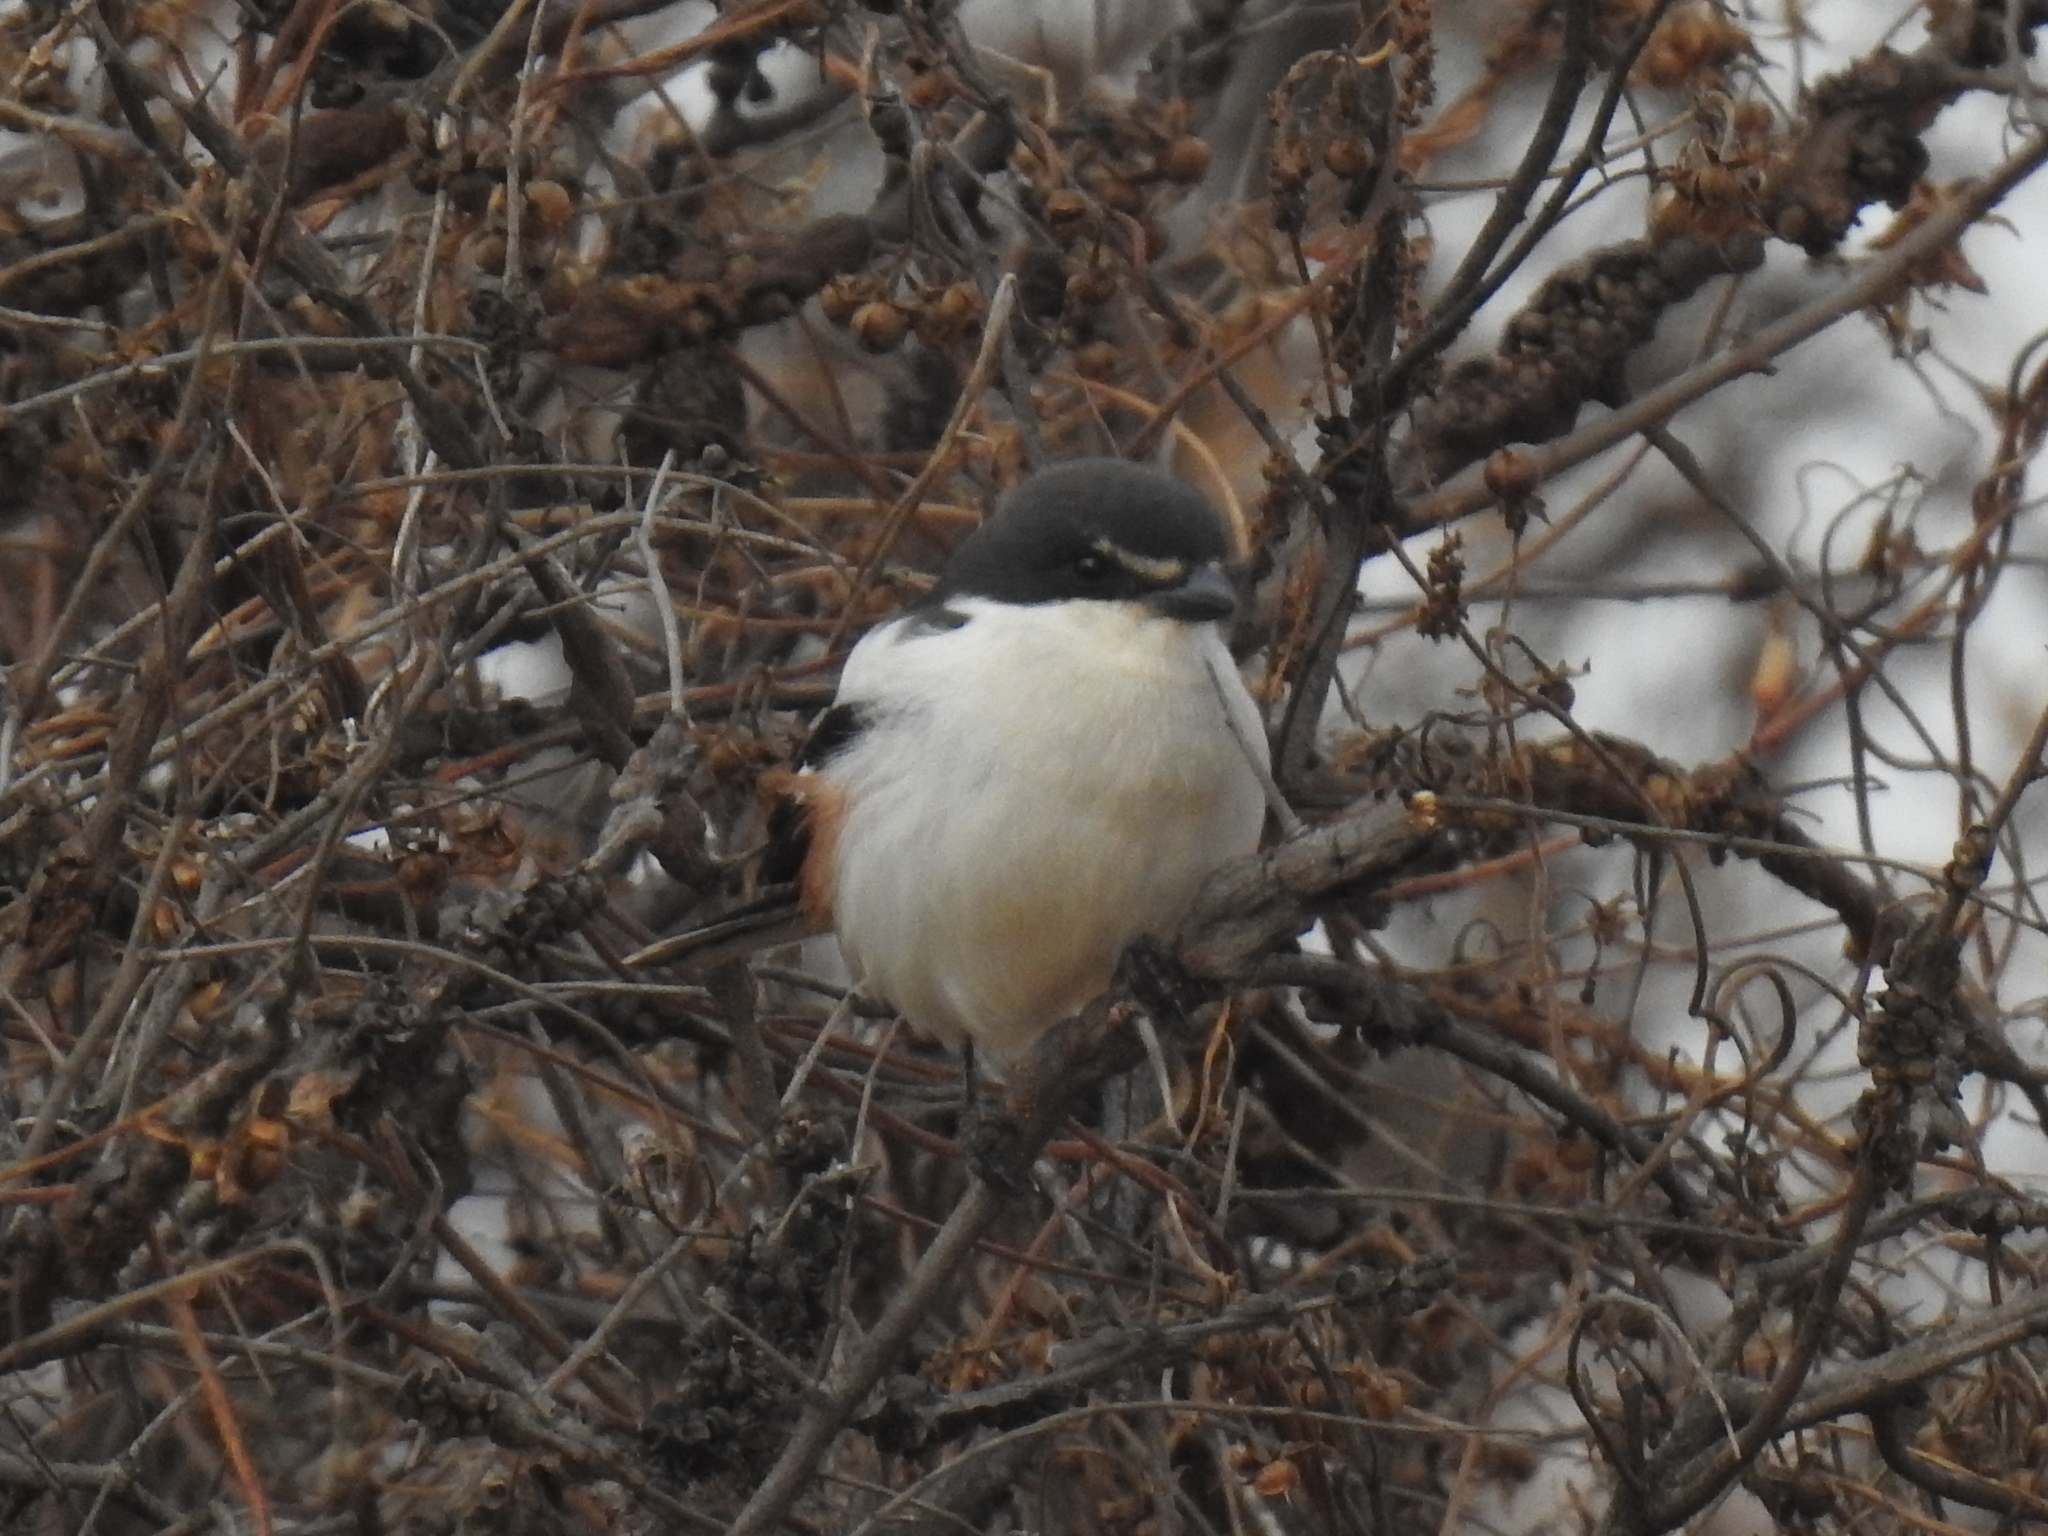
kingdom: Animalia
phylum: Chordata
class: Aves
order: Passeriformes
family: Laniidae
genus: Lanius
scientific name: Lanius collaris
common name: Southern fiscal
